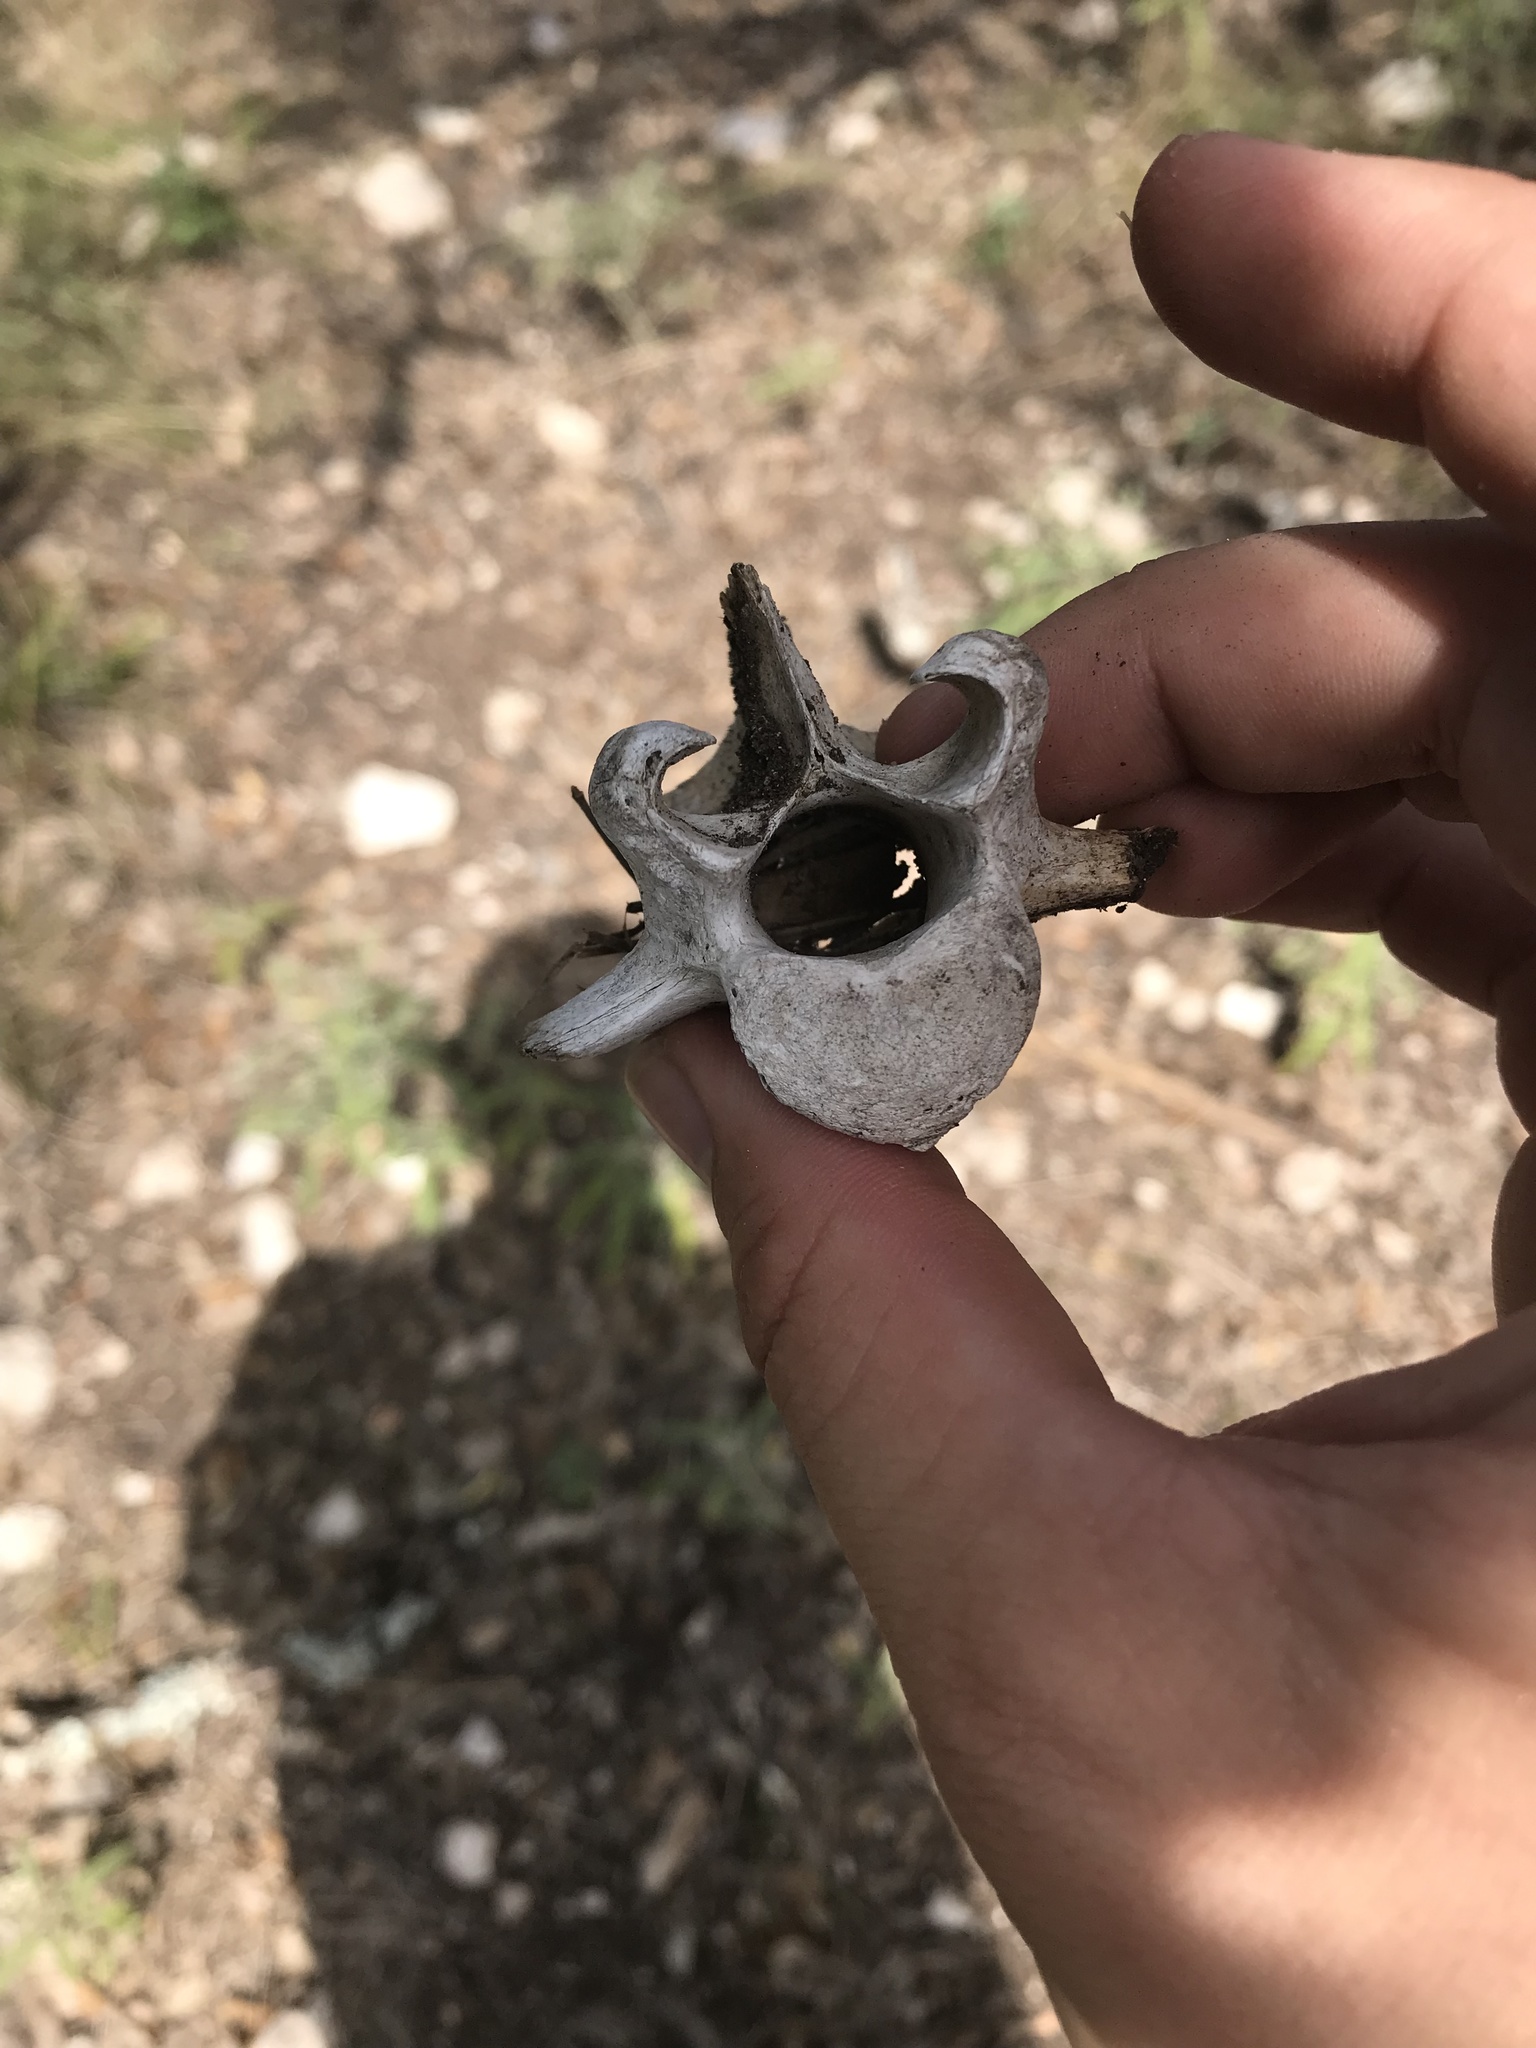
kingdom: Animalia
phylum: Chordata
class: Mammalia
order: Artiodactyla
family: Cervidae
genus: Odocoileus
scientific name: Odocoileus virginianus
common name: White-tailed deer
